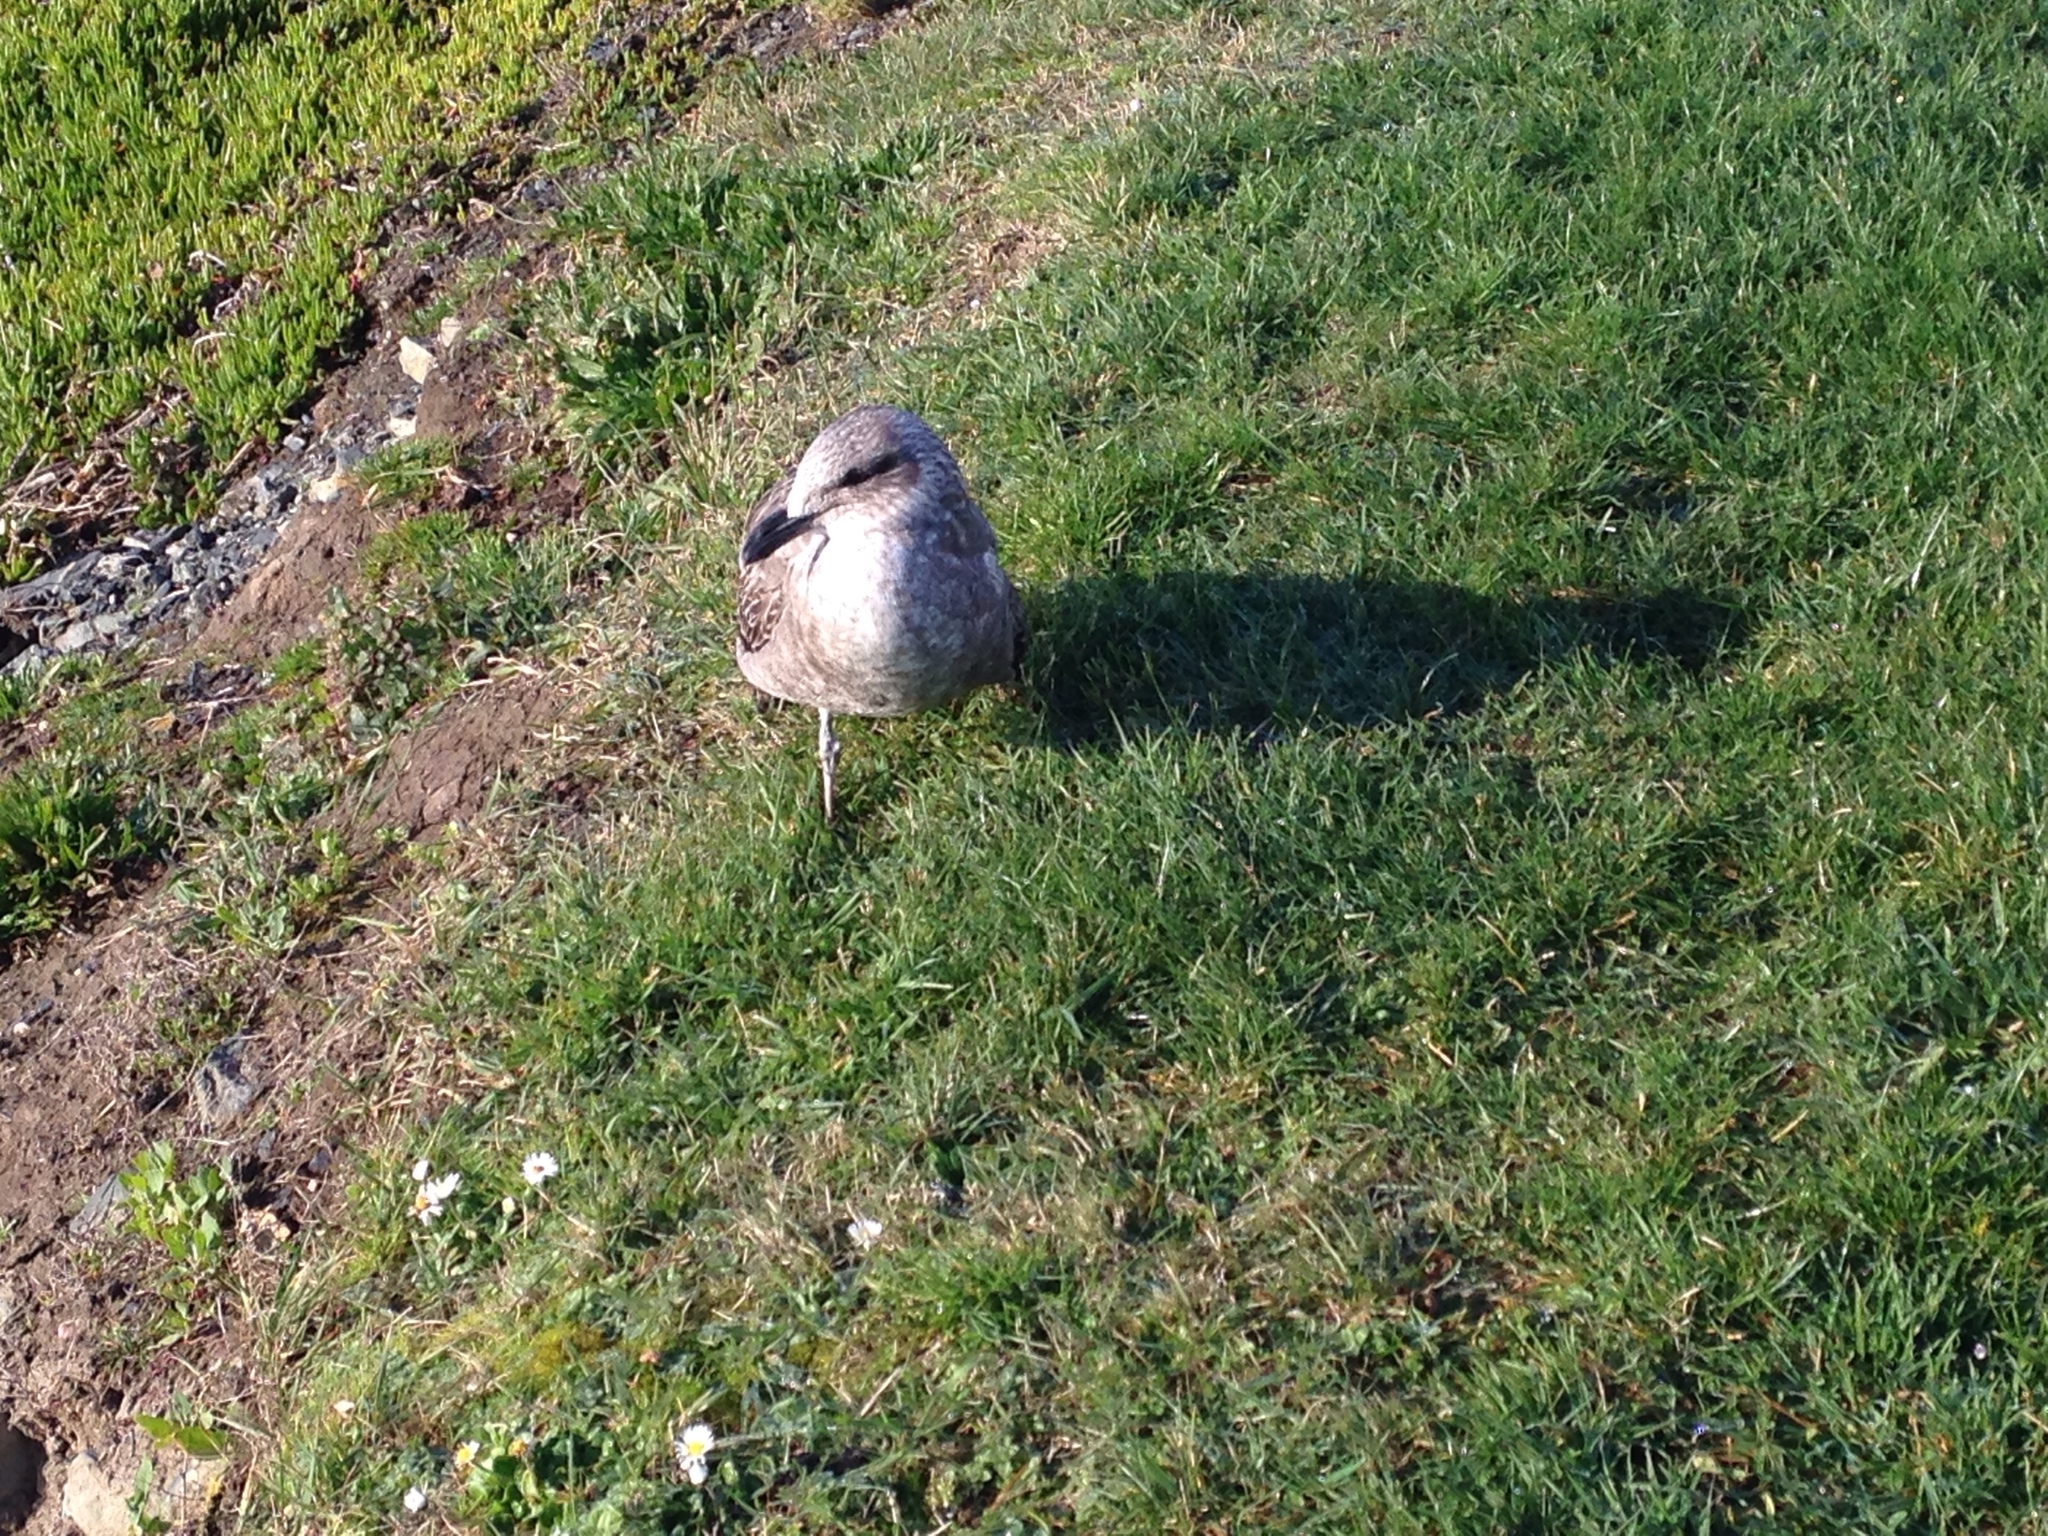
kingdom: Animalia
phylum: Chordata
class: Aves
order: Charadriiformes
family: Laridae
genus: Larus
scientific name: Larus dominicanus
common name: Kelp gull
